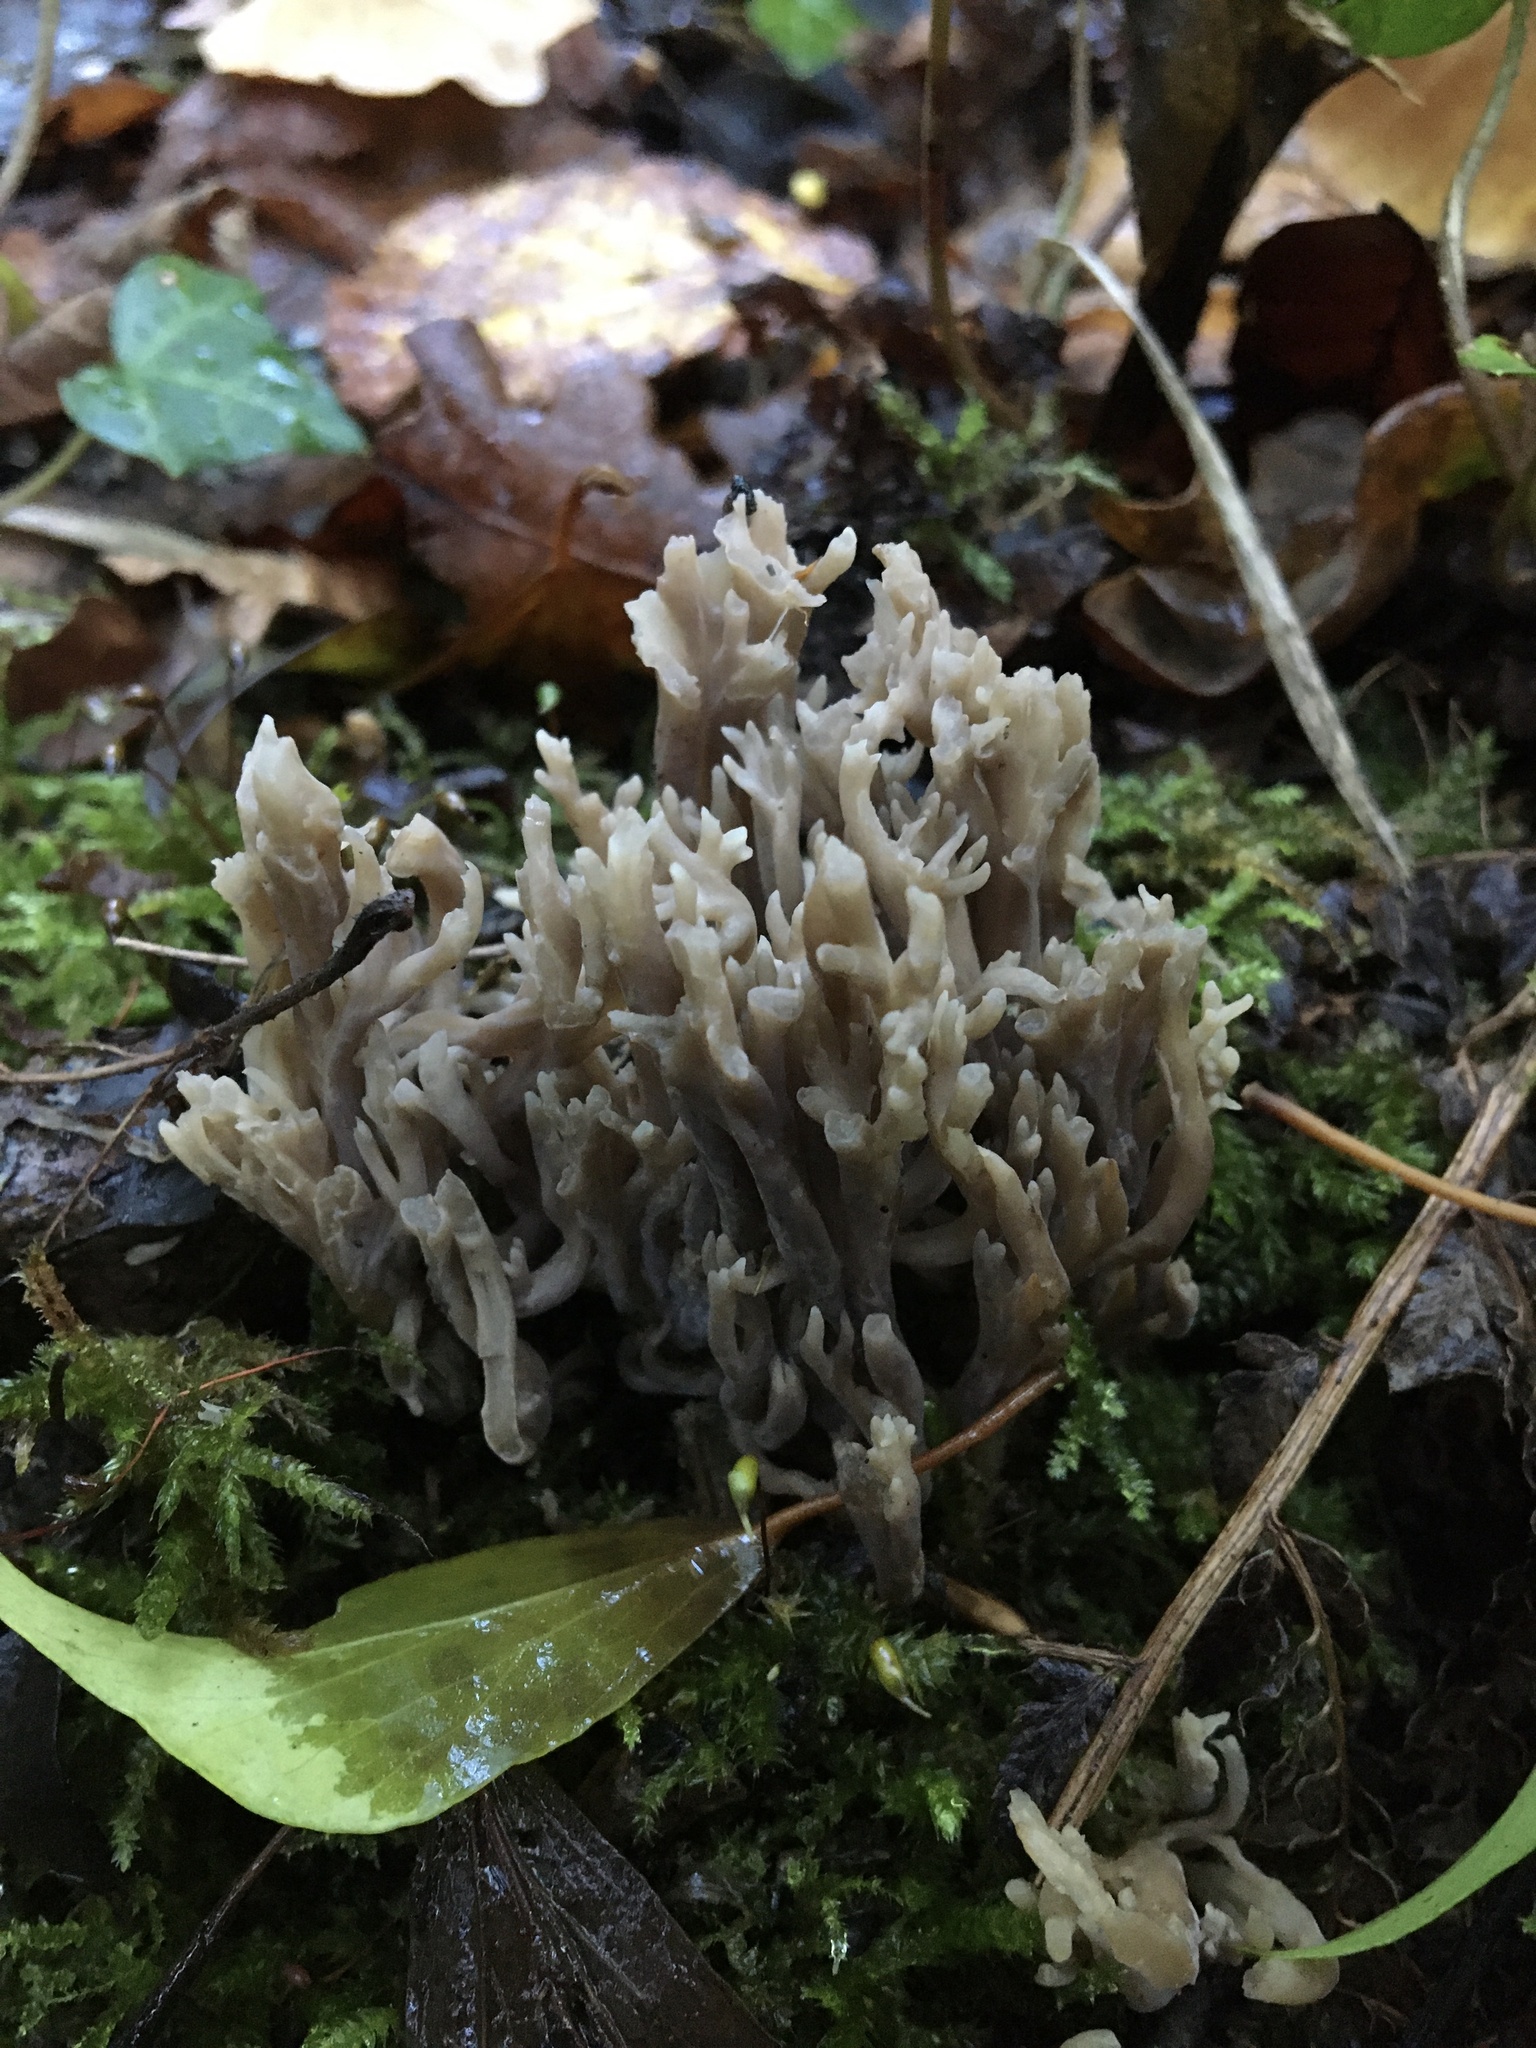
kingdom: Fungi
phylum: Basidiomycota
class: Agaricomycetes
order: Cantharellales
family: Hydnaceae
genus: Clavulina
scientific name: Clavulina cinerea
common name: Grey coral
